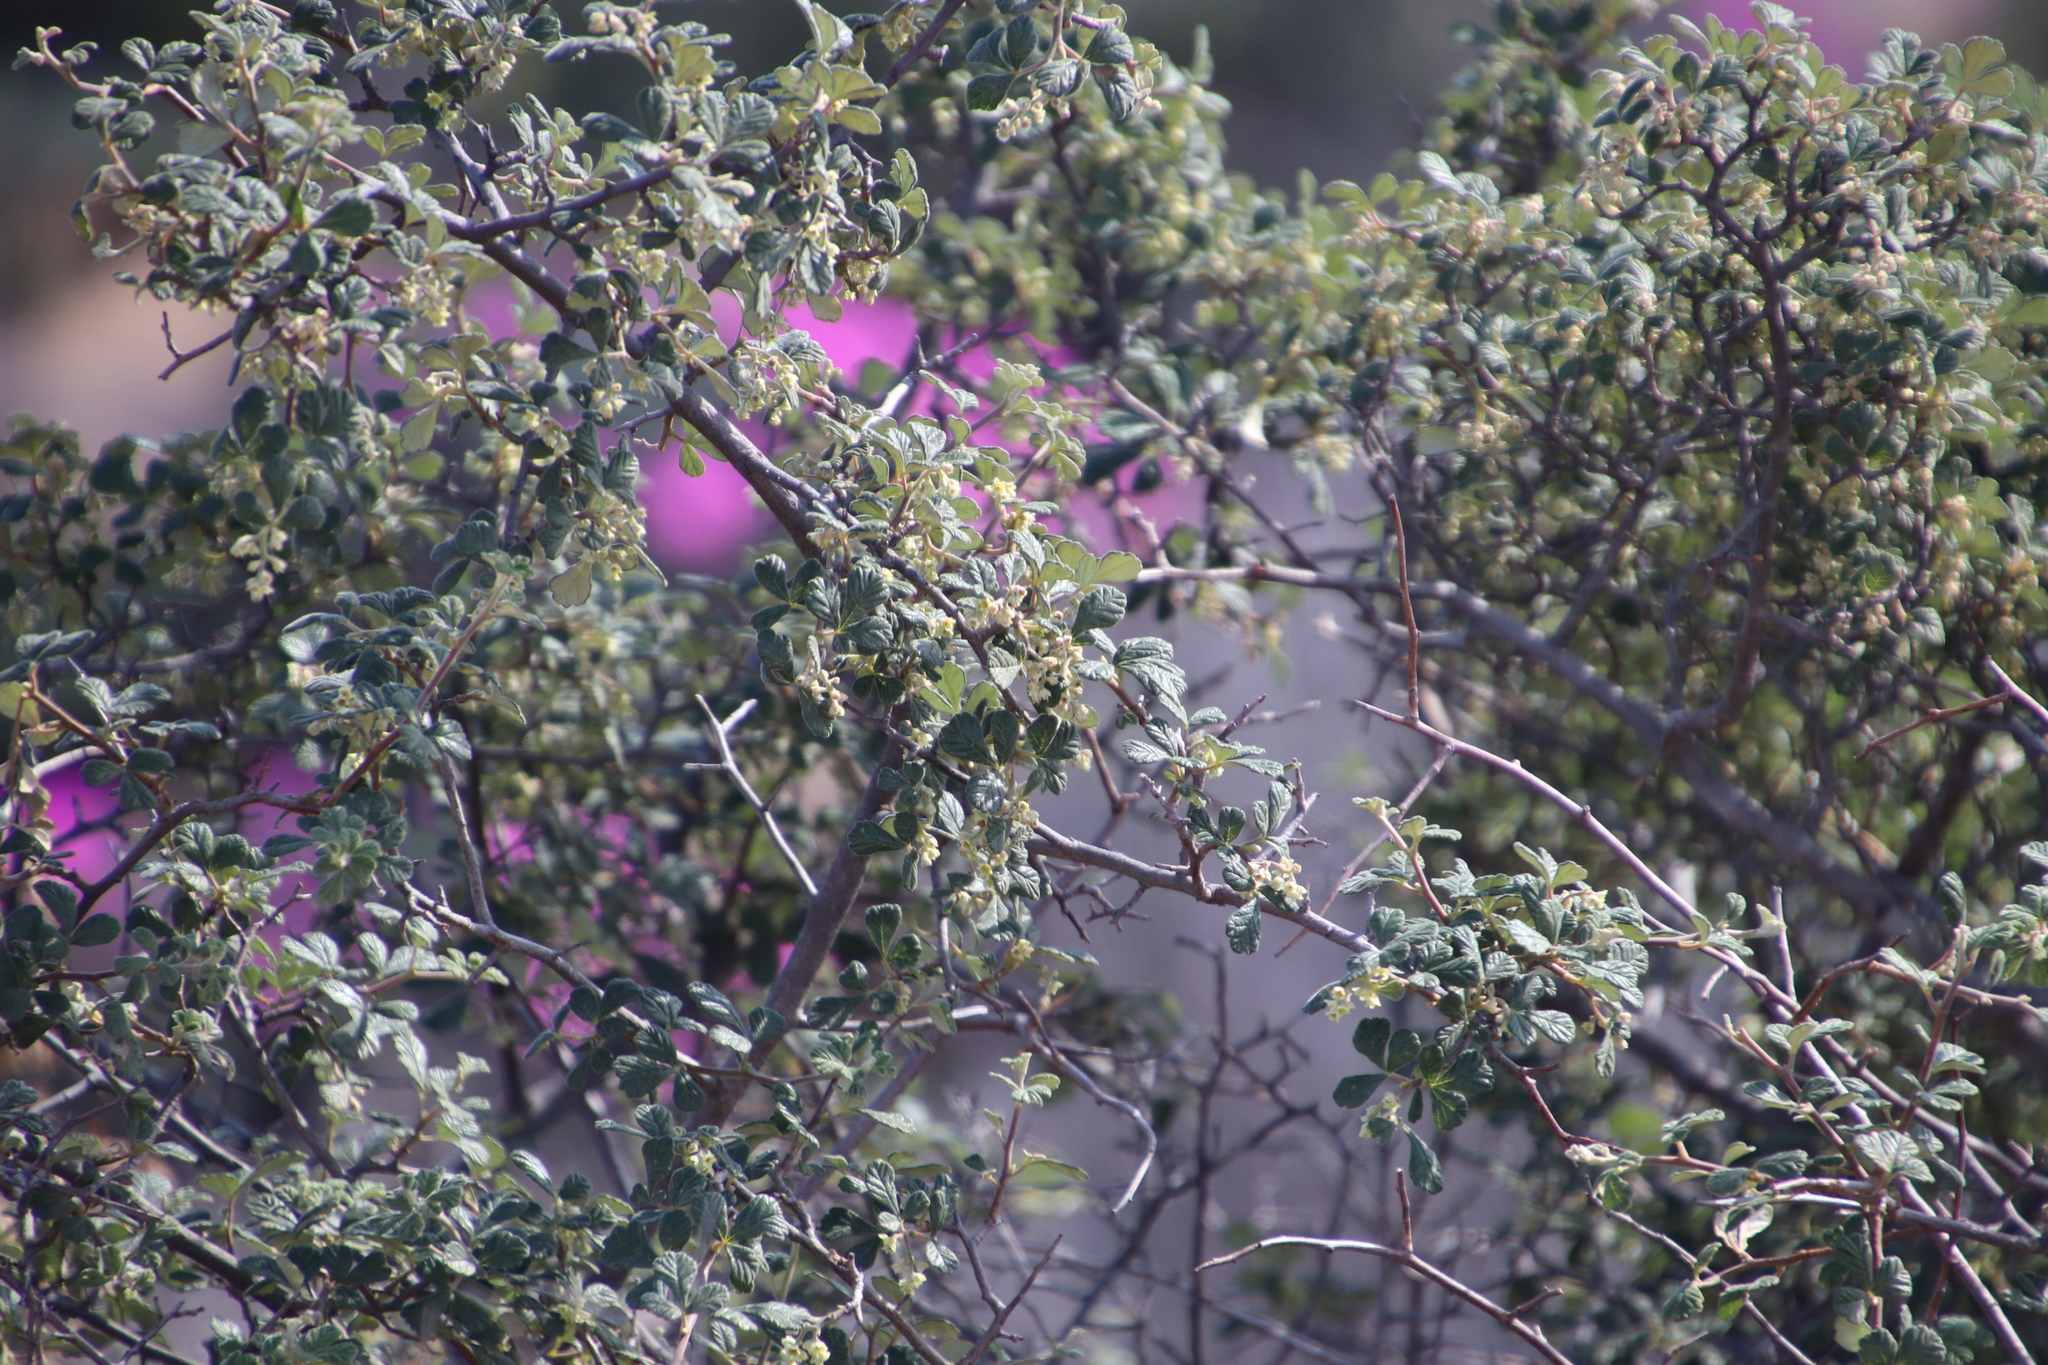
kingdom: Plantae
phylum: Tracheophyta
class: Magnoliopsida
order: Sapindales
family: Anacardiaceae
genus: Searsia
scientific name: Searsia incisa
